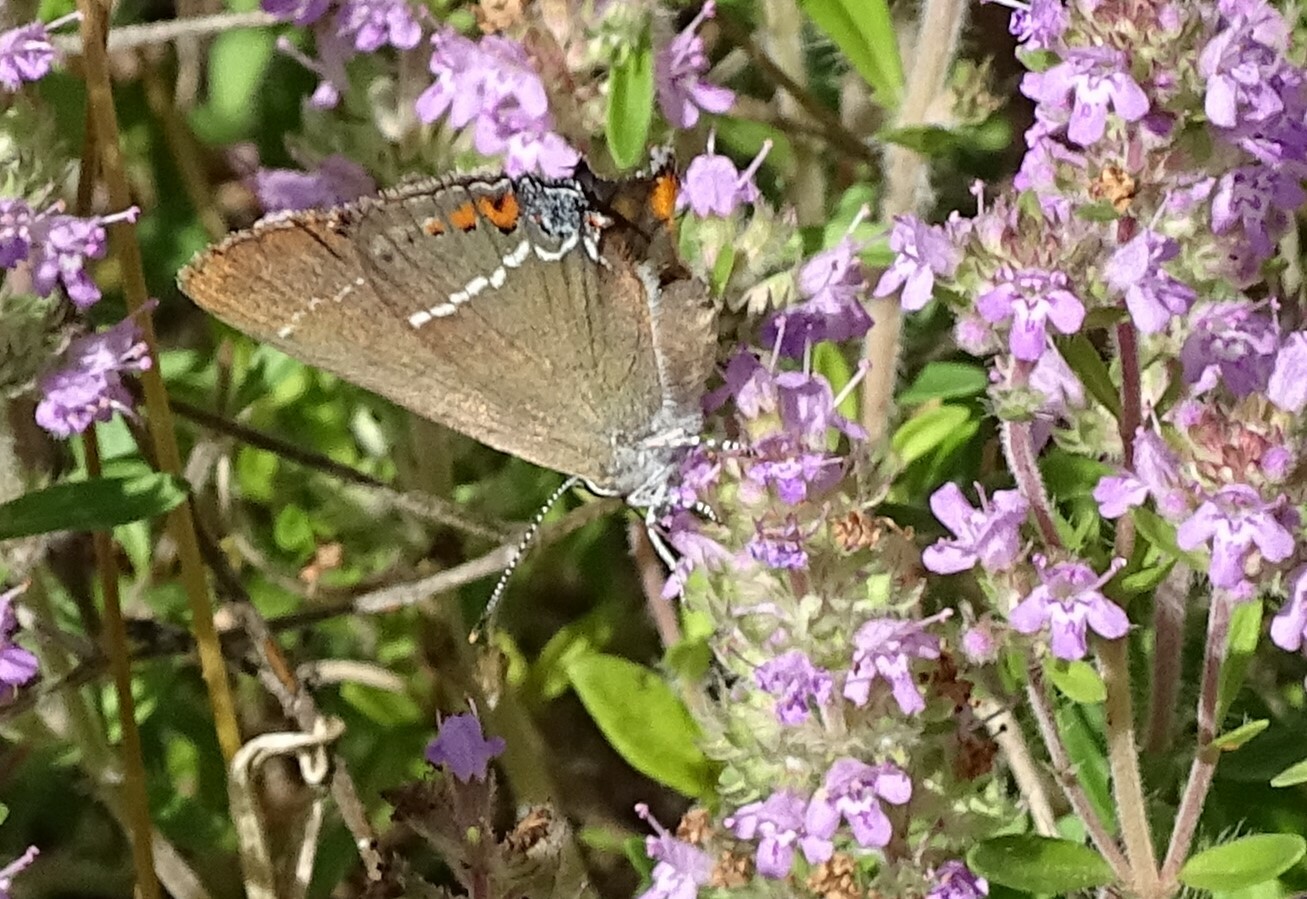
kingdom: Animalia
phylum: Arthropoda
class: Insecta
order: Lepidoptera
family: Lycaenidae
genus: Tuttiola
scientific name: Tuttiola spini
